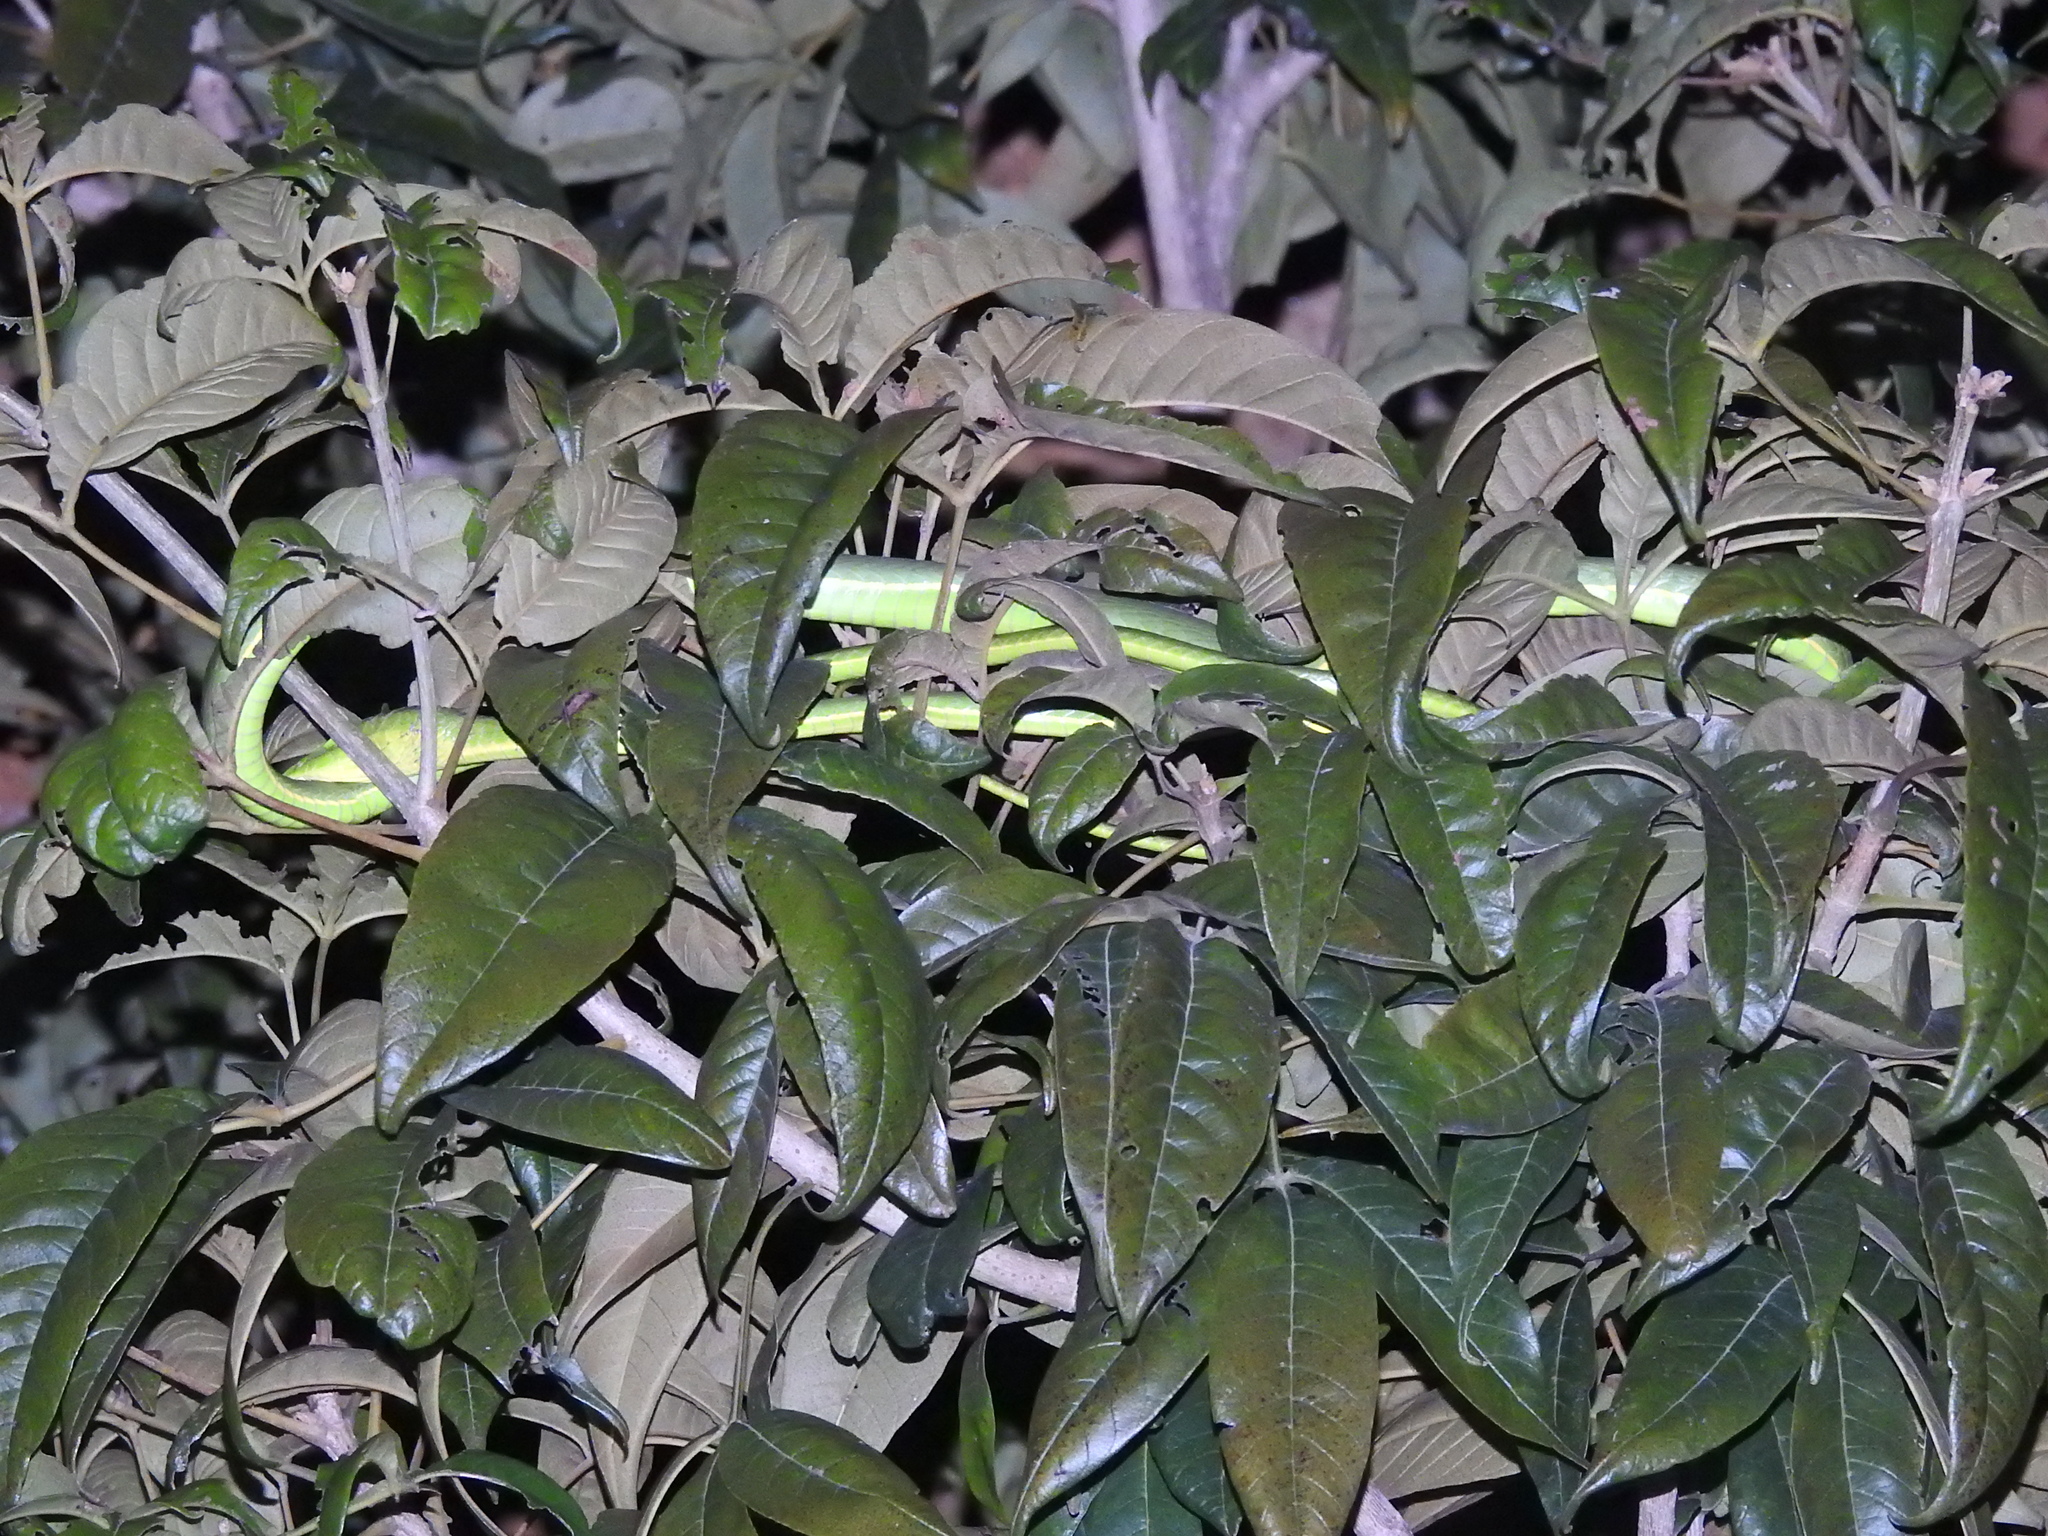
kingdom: Animalia
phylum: Chordata
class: Squamata
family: Colubridae
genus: Ahaetulla
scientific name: Ahaetulla oxyrhyncha
